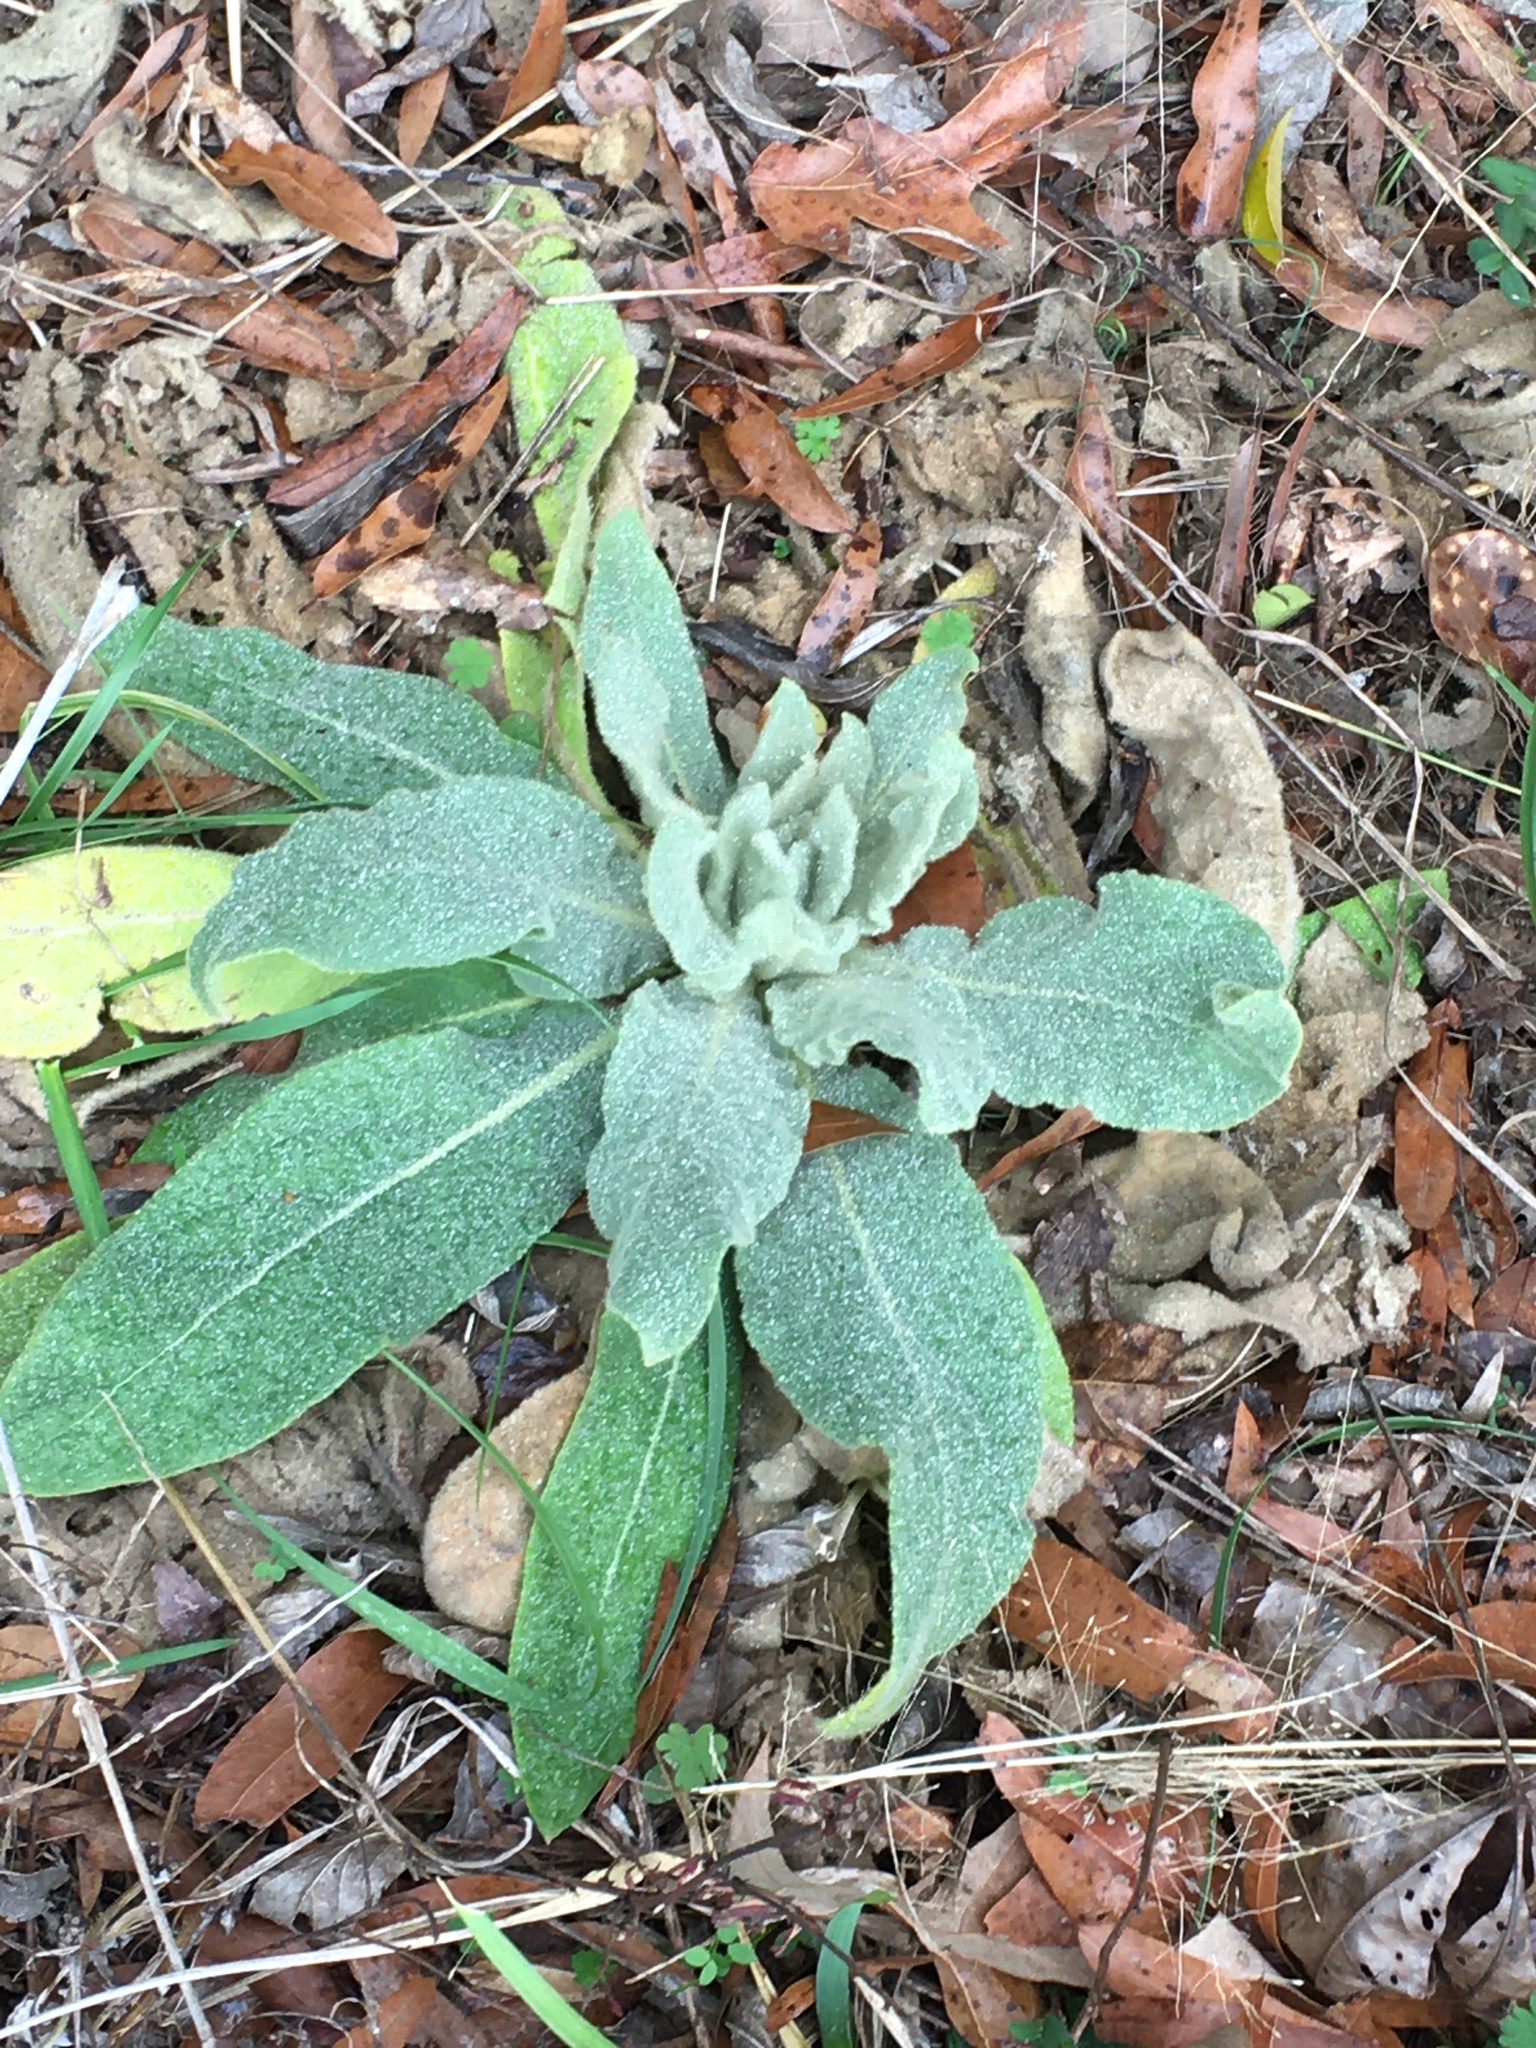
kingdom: Plantae
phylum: Tracheophyta
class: Magnoliopsida
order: Lamiales
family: Scrophulariaceae
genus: Verbascum
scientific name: Verbascum thapsus
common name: Common mullein
